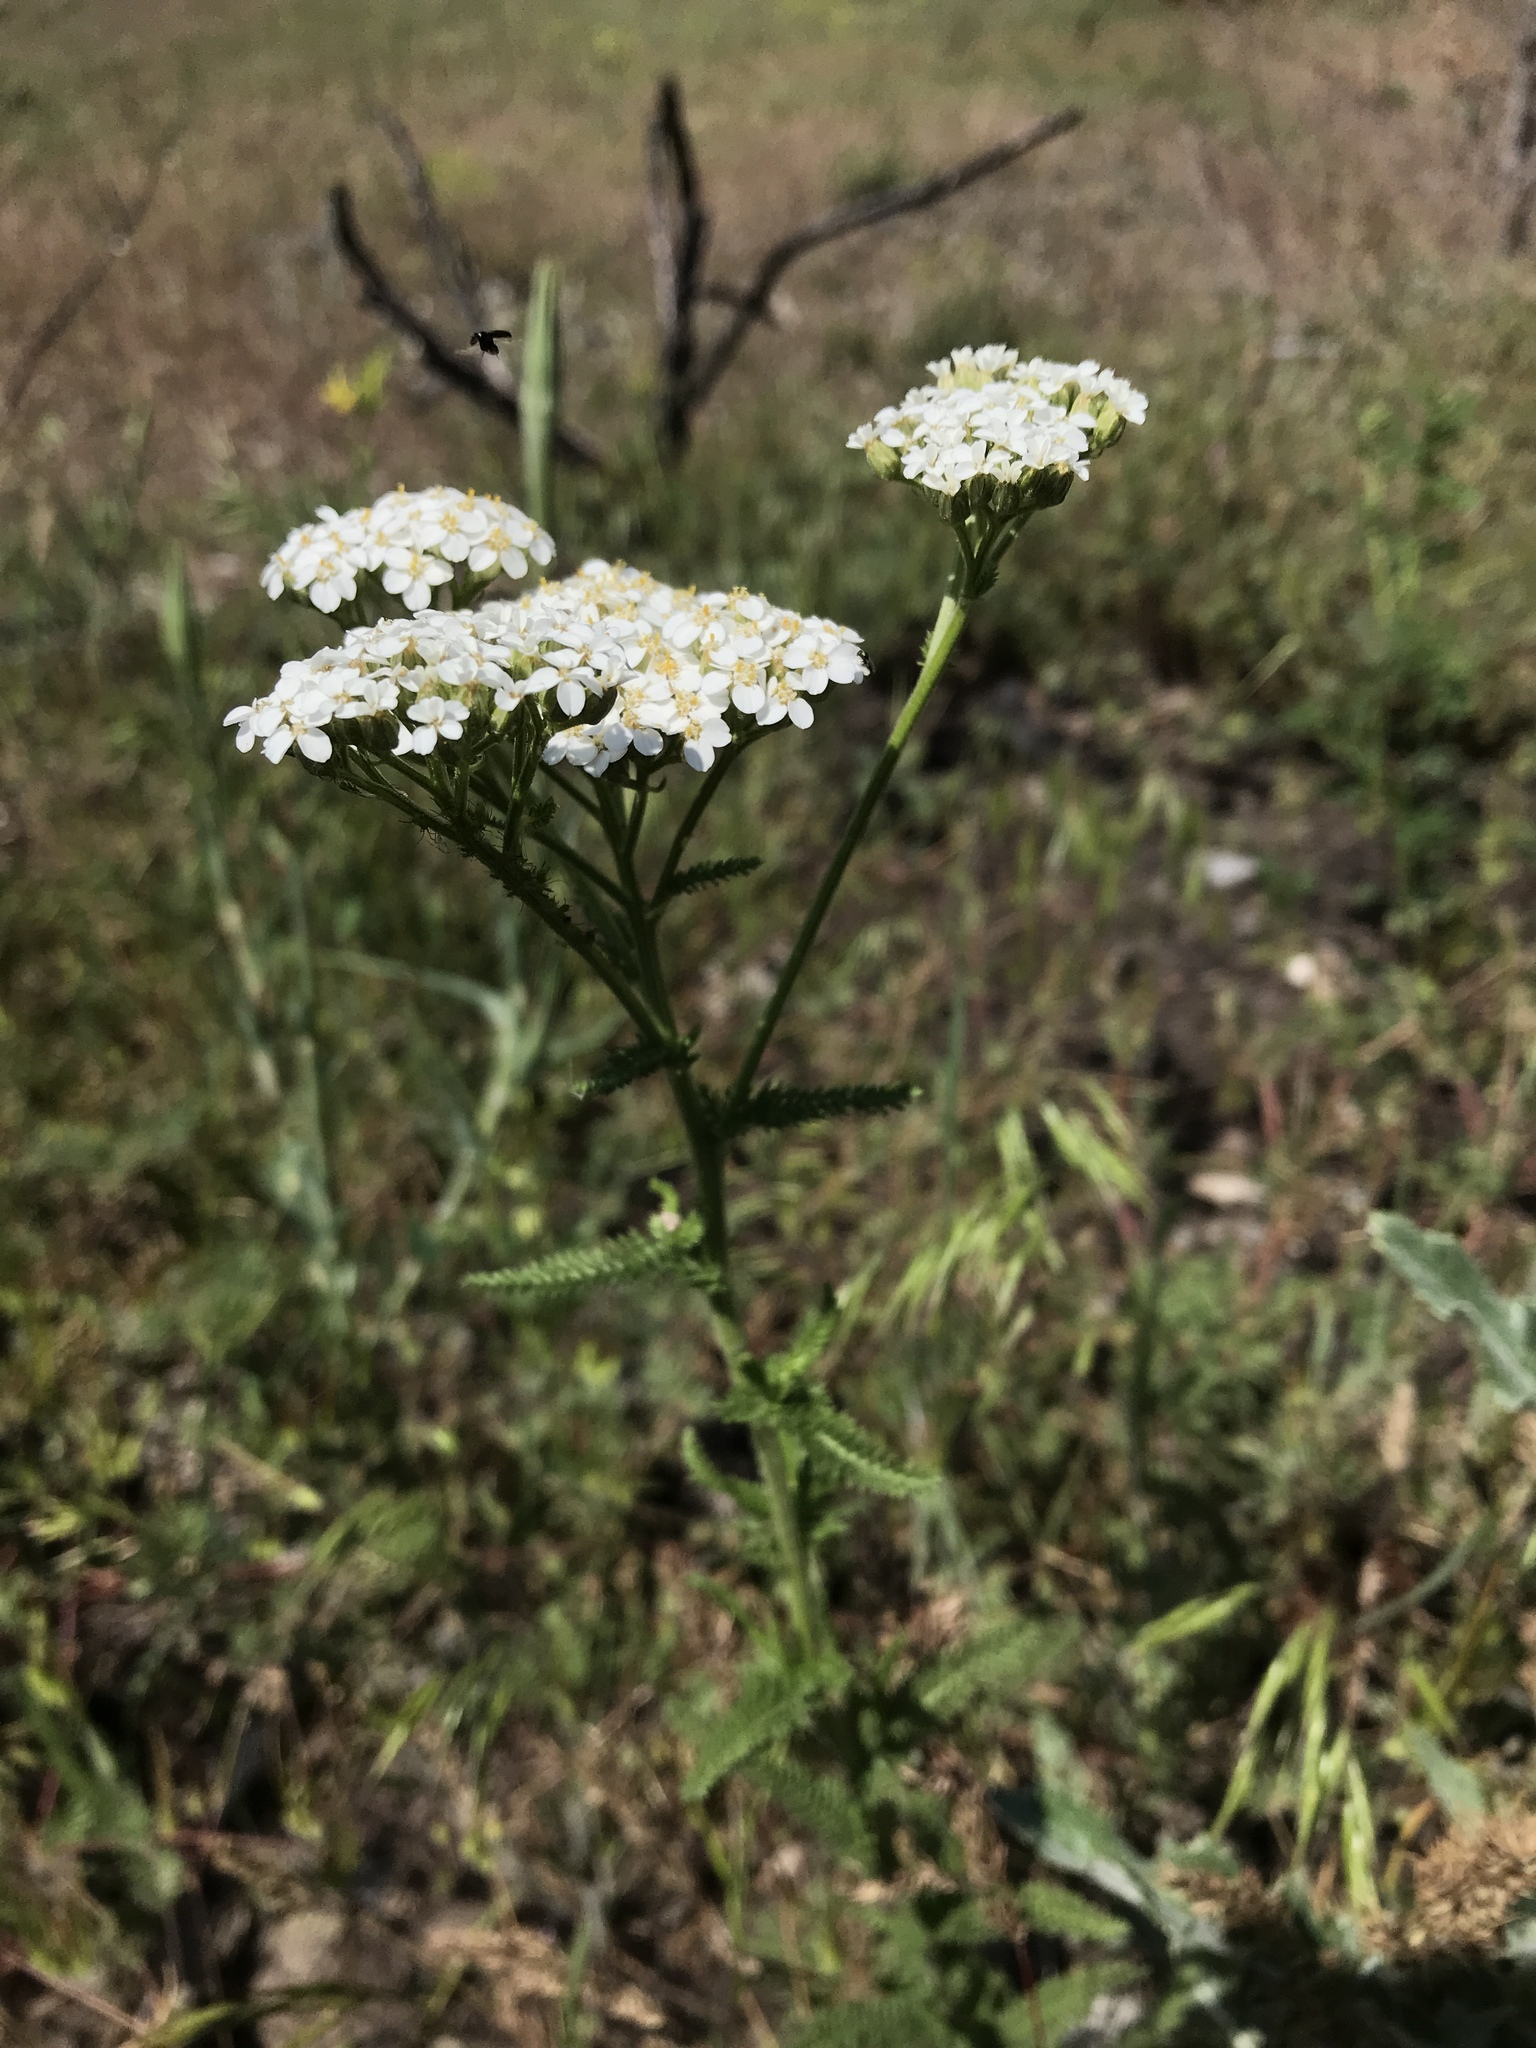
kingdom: Plantae
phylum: Tracheophyta
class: Magnoliopsida
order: Asterales
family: Asteraceae
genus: Achillea
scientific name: Achillea millefolium
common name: Yarrow
